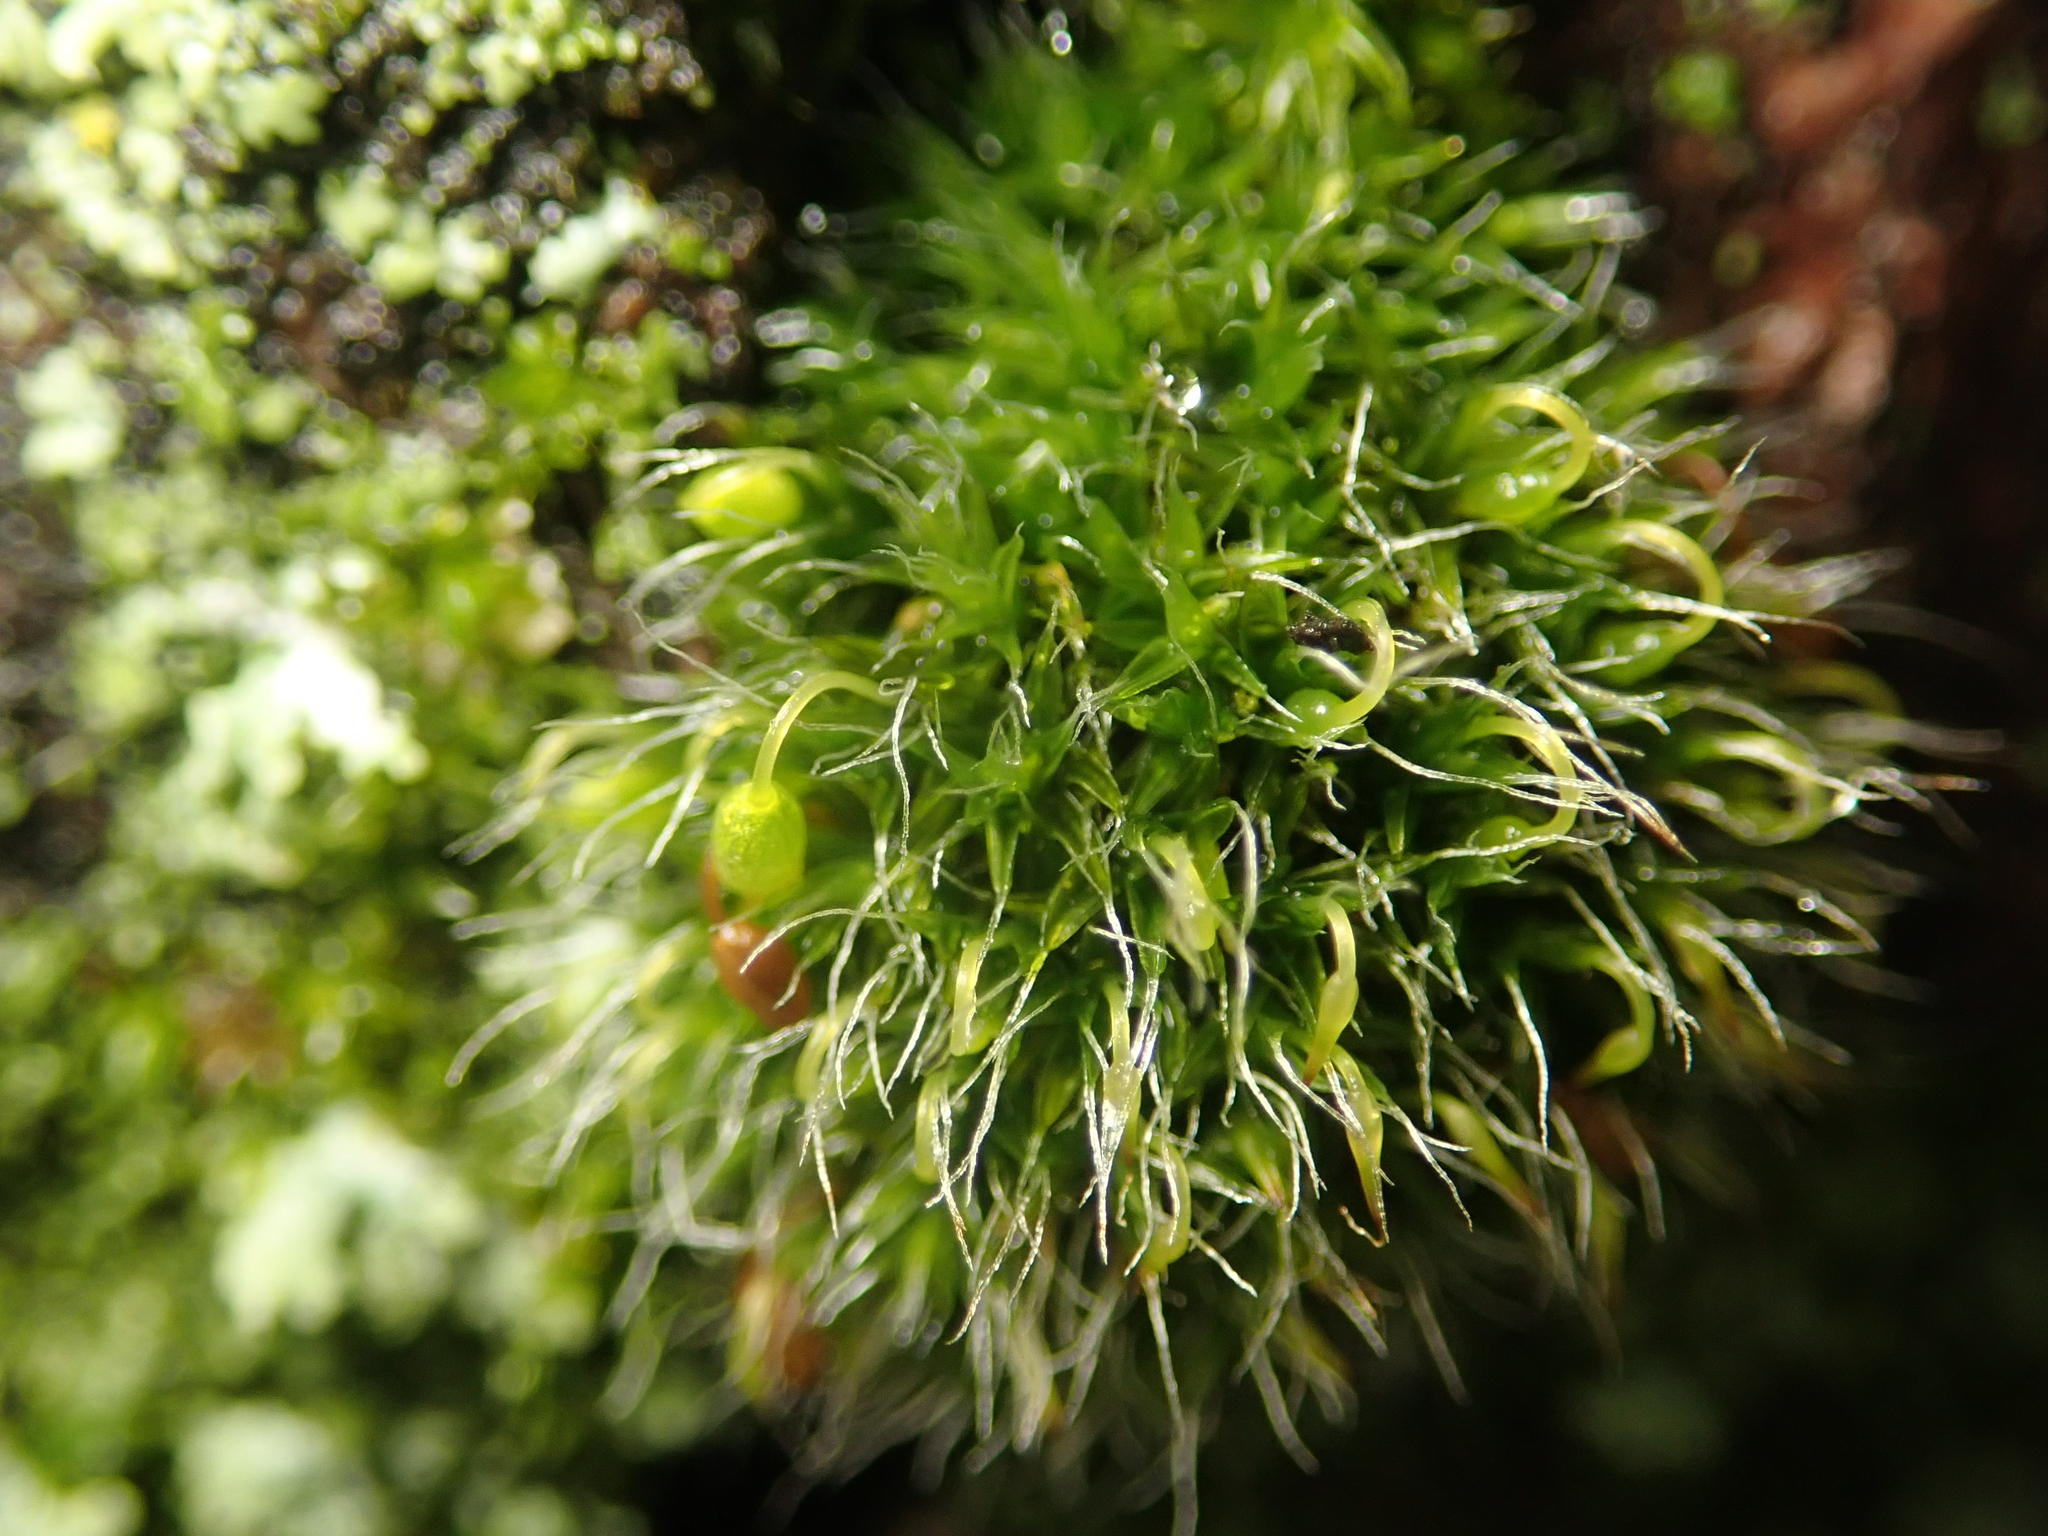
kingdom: Plantae
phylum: Bryophyta
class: Bryopsida
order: Grimmiales
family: Grimmiaceae
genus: Grimmia
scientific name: Grimmia pulvinata
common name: Grey-cushioned grimmia
